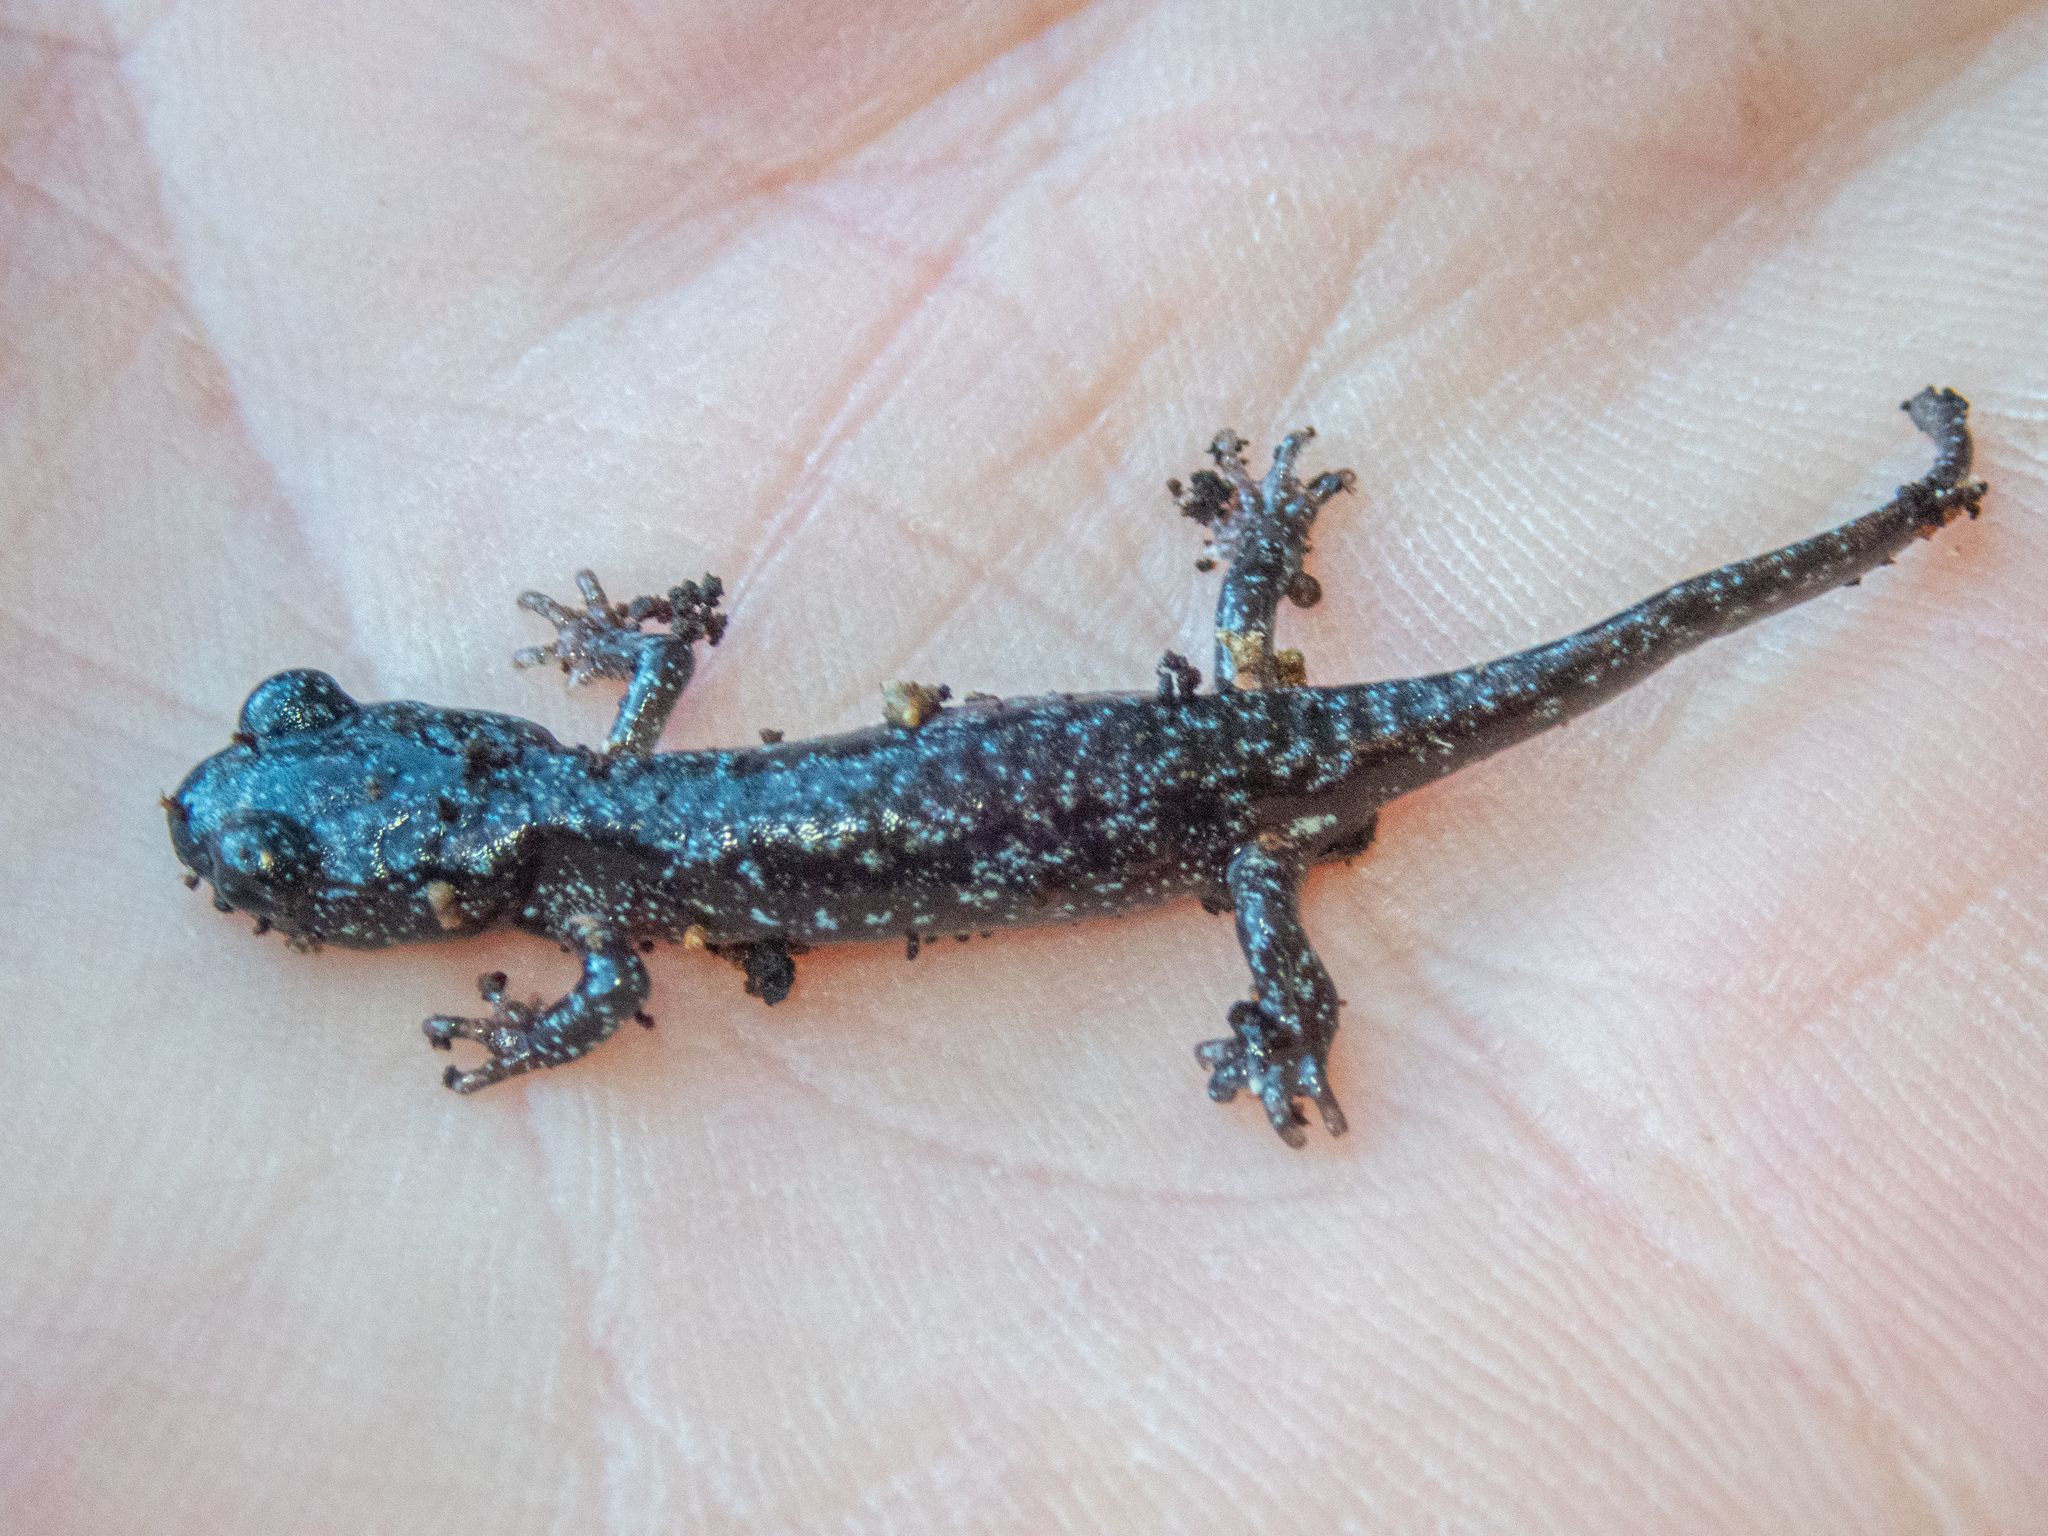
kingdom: Animalia
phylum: Chordata
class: Amphibia
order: Caudata
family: Plethodontidae
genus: Aneides
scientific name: Aneides lugubris
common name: Arboreal salamander
